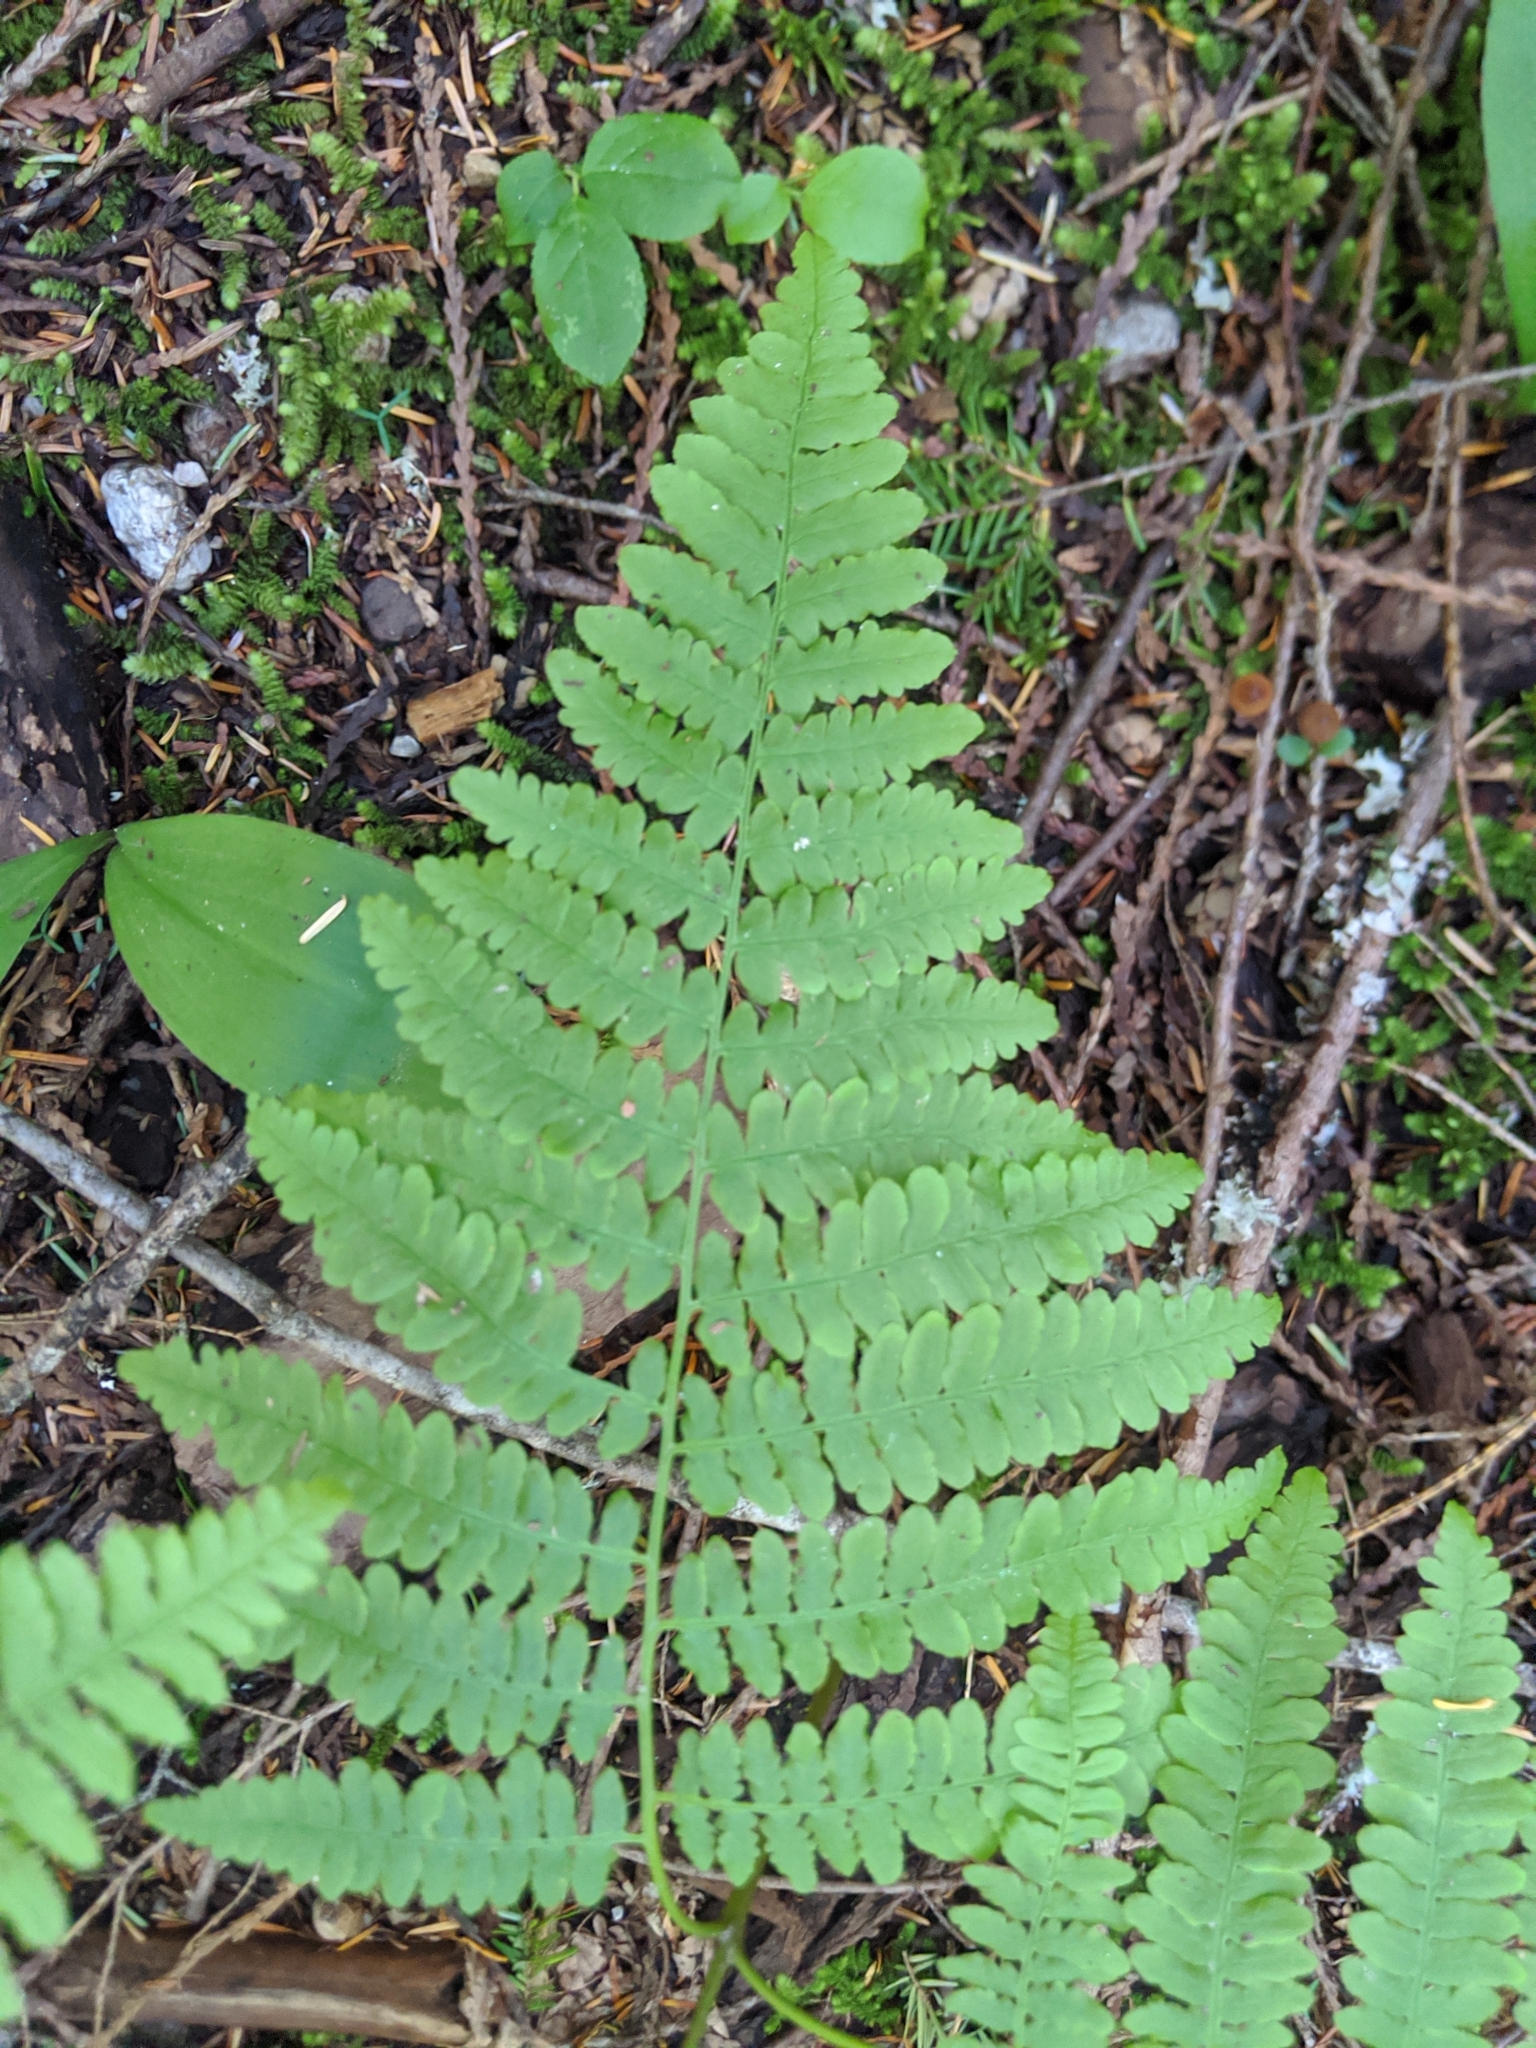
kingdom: Plantae
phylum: Tracheophyta
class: Polypodiopsida
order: Polypodiales
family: Dennstaedtiaceae
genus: Pteridium
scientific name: Pteridium aquilinum
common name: Bracken
